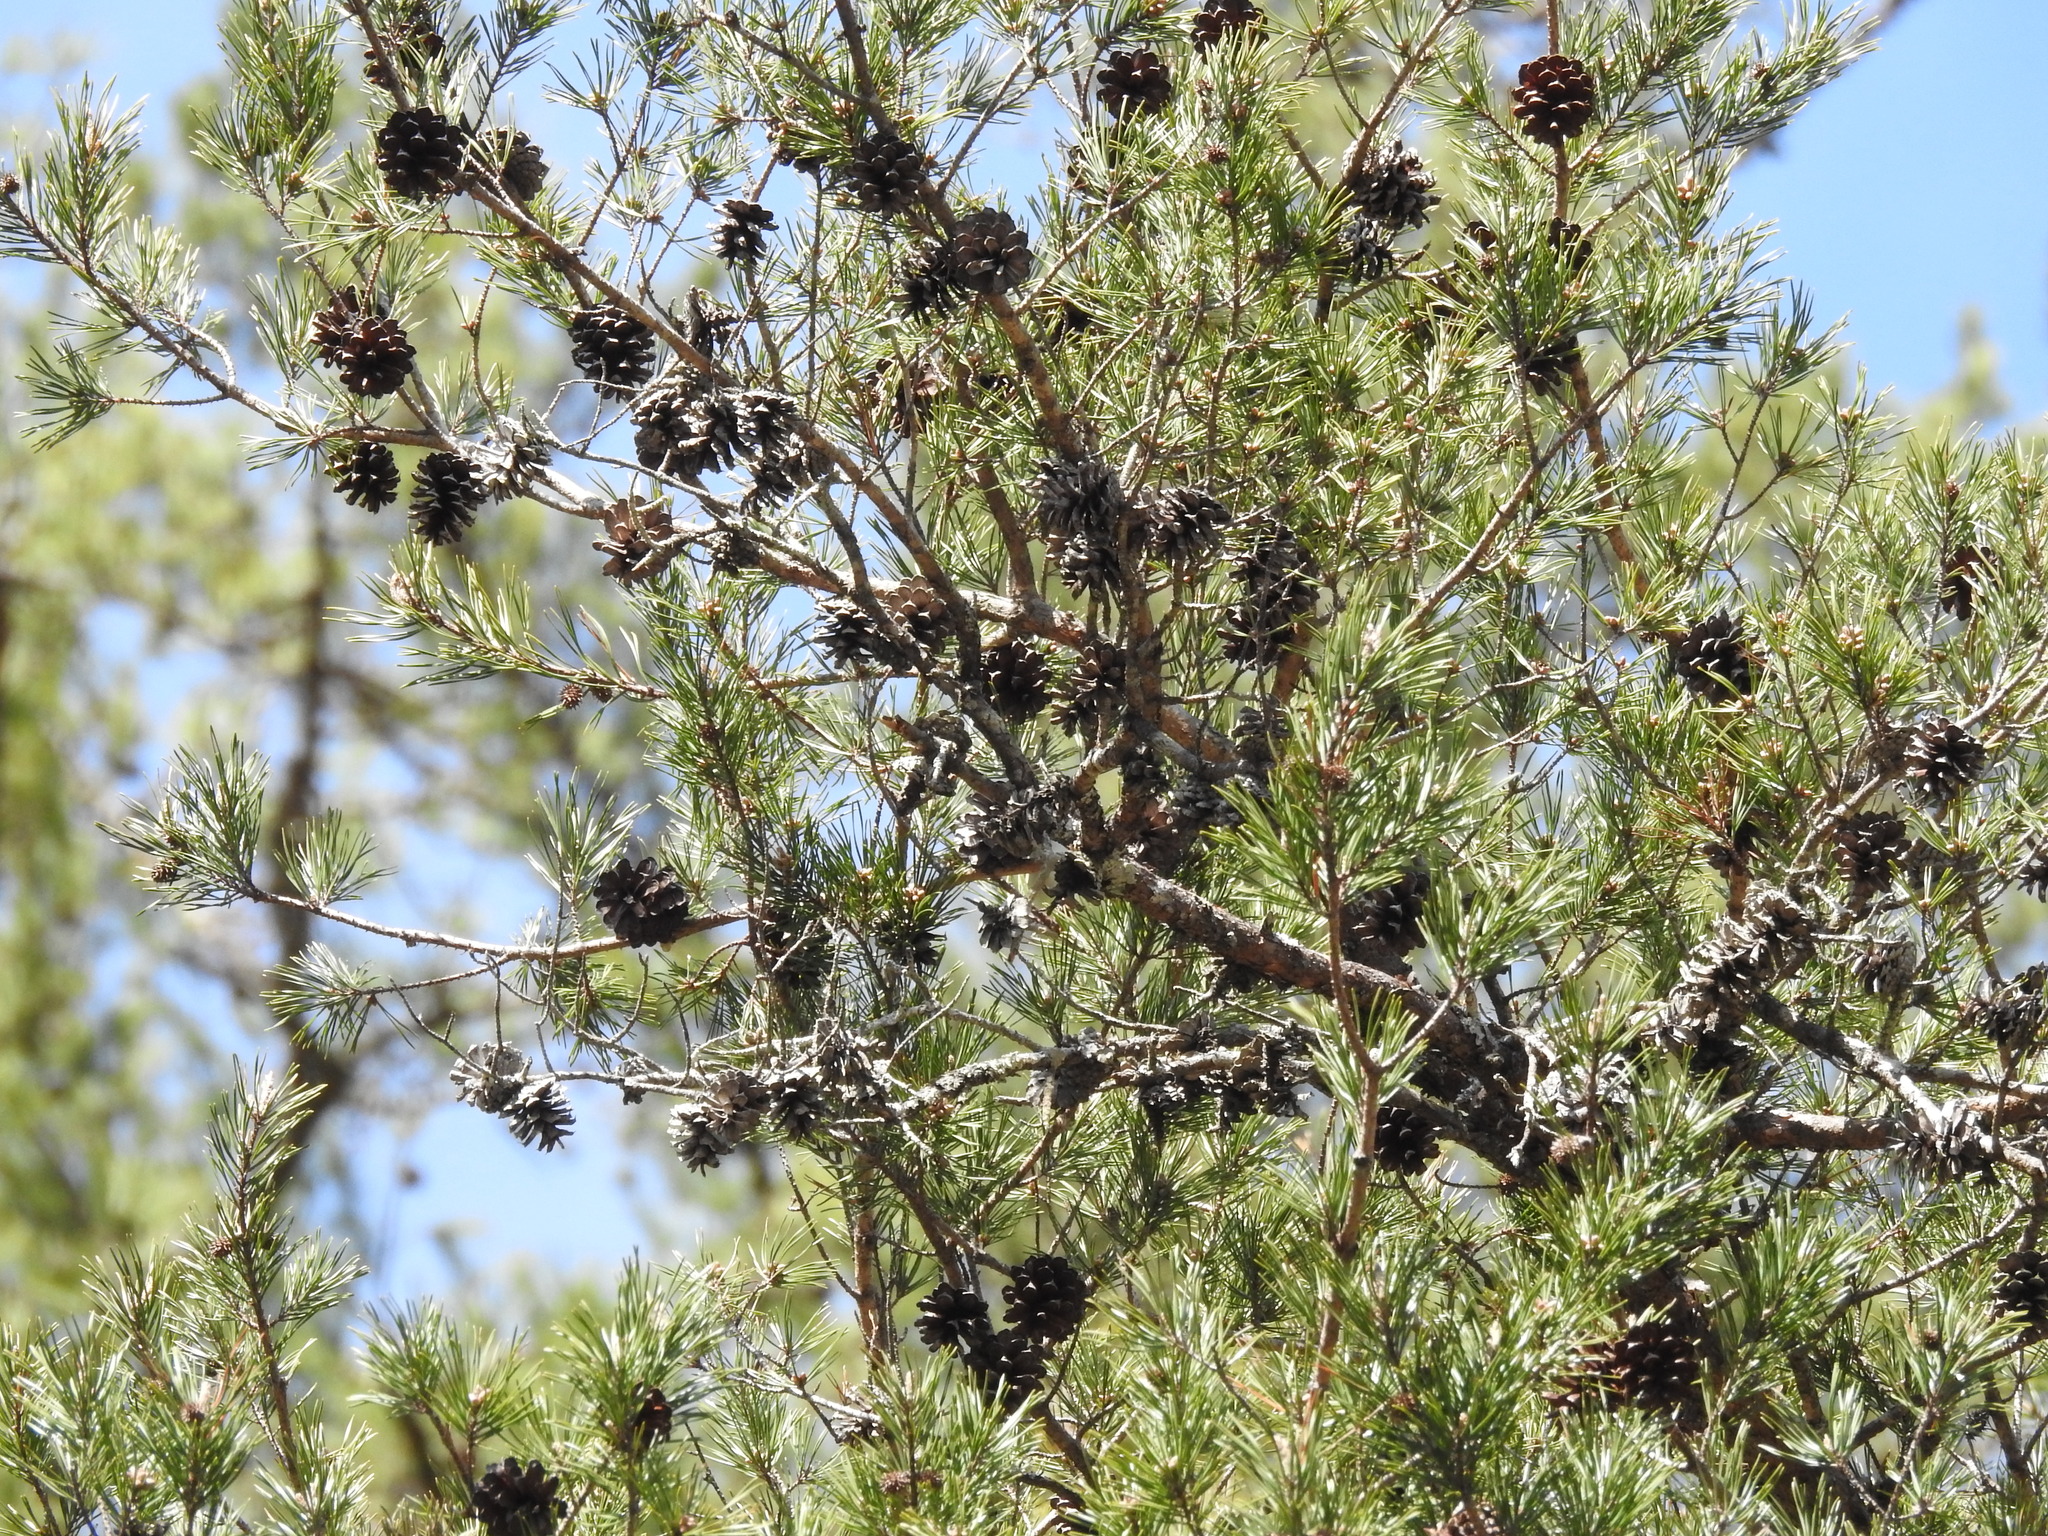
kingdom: Plantae
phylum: Tracheophyta
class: Pinopsida
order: Pinales
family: Pinaceae
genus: Pinus
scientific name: Pinus virginiana
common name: Scrub pine
